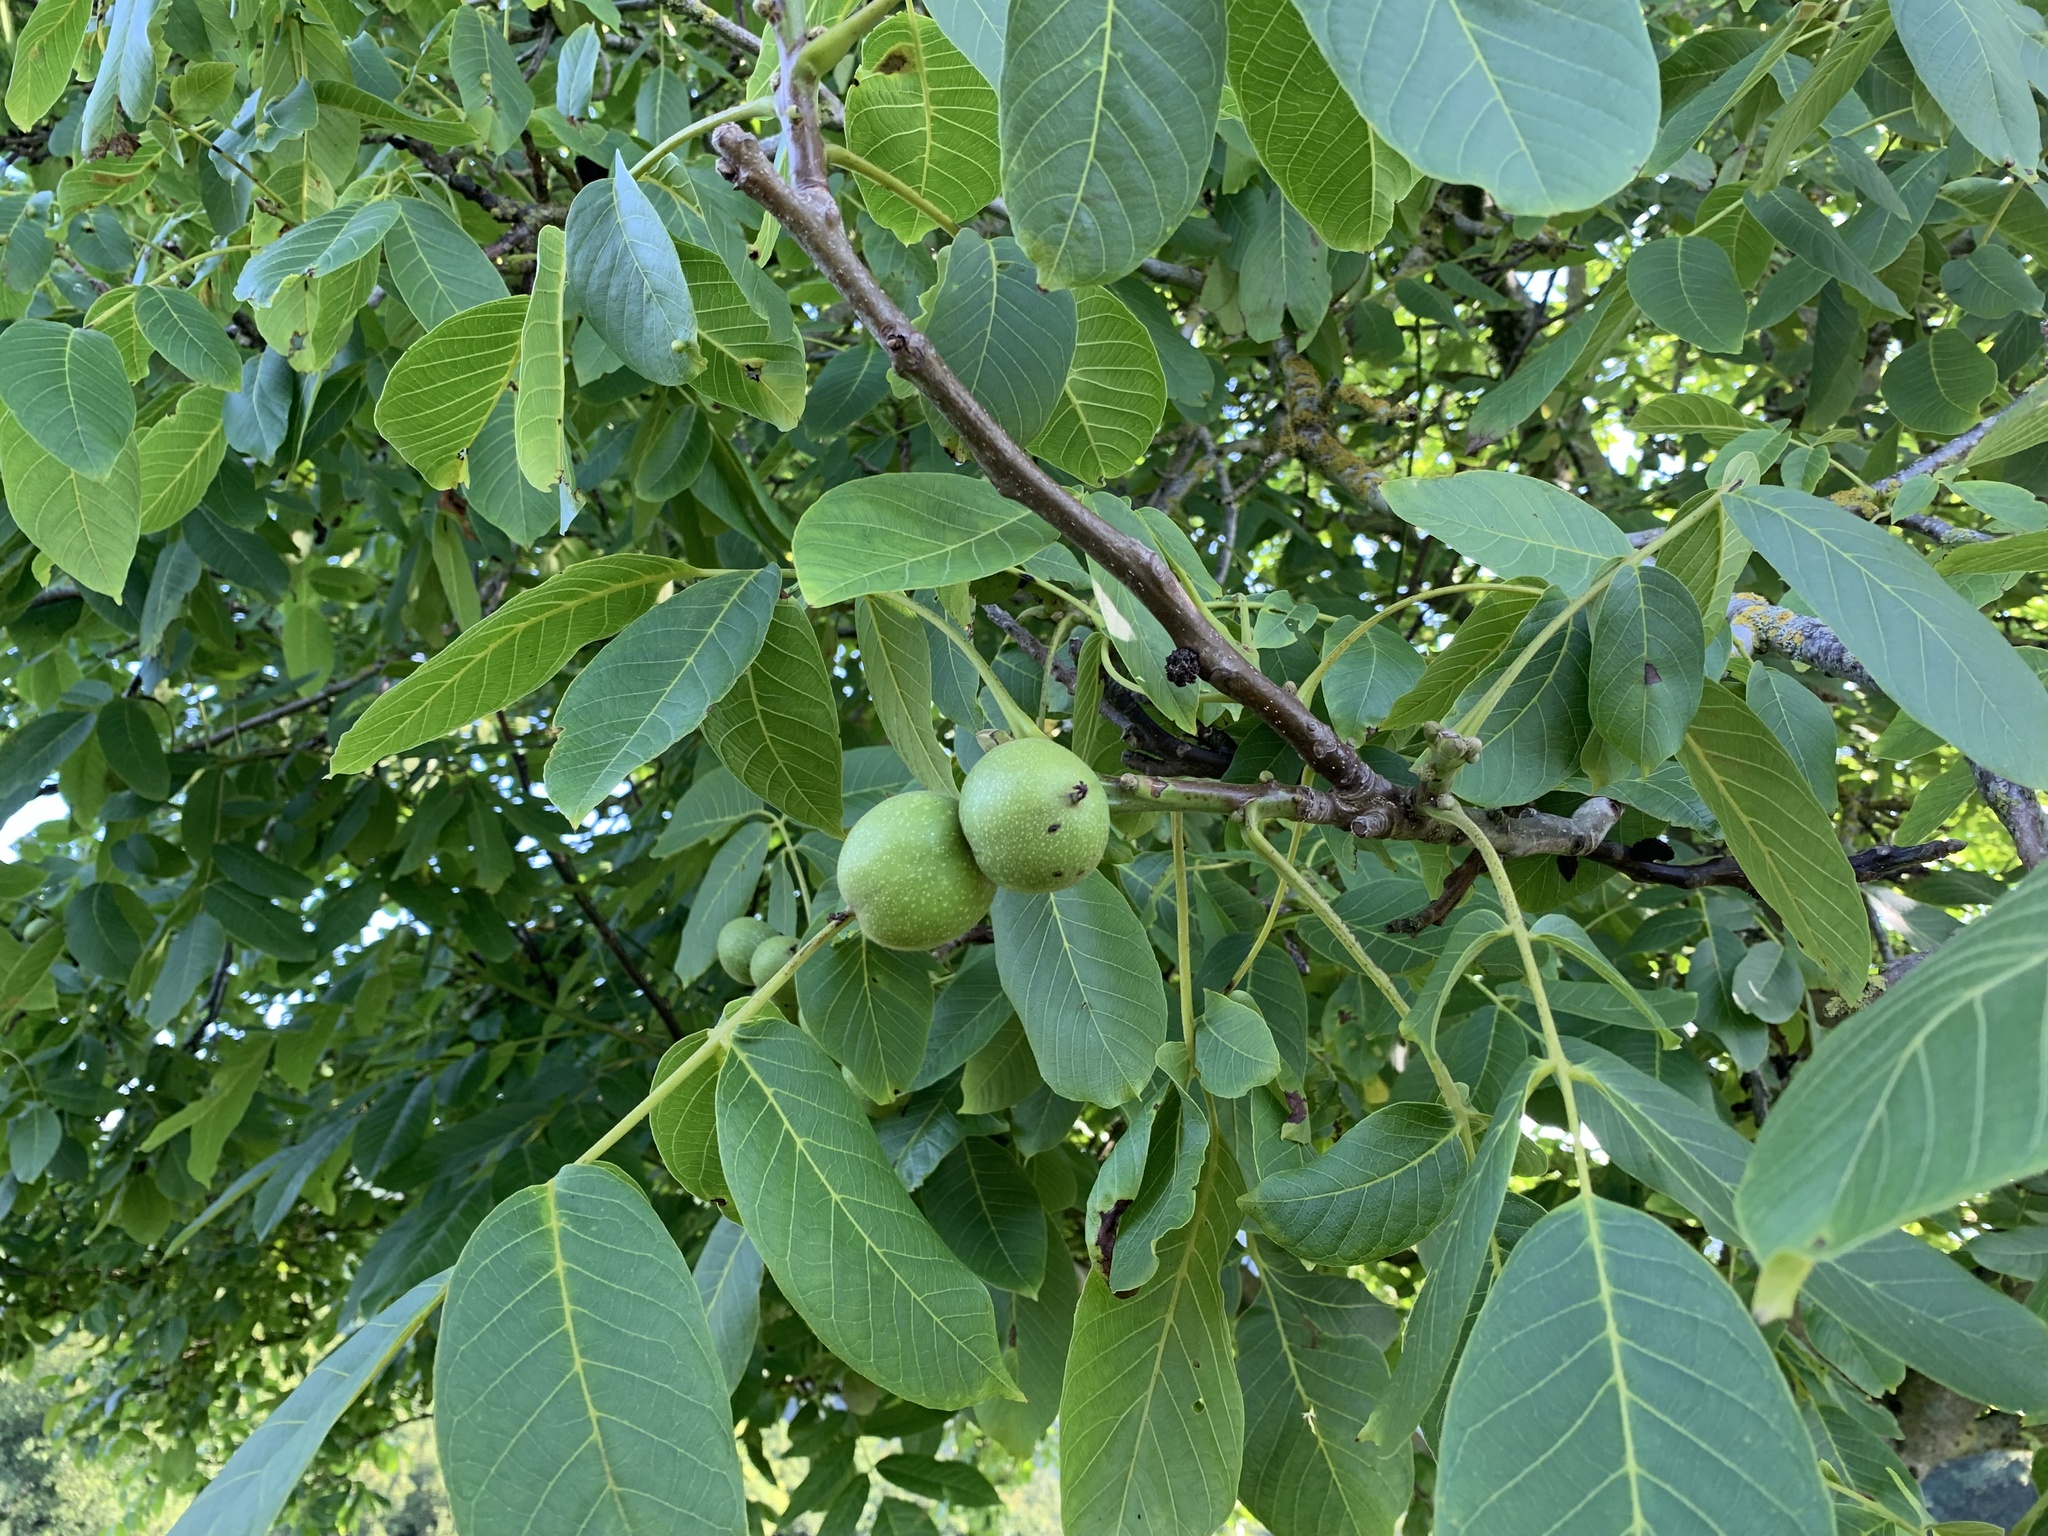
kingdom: Plantae
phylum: Tracheophyta
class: Magnoliopsida
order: Fagales
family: Juglandaceae
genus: Juglans
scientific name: Juglans regia
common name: Walnut
